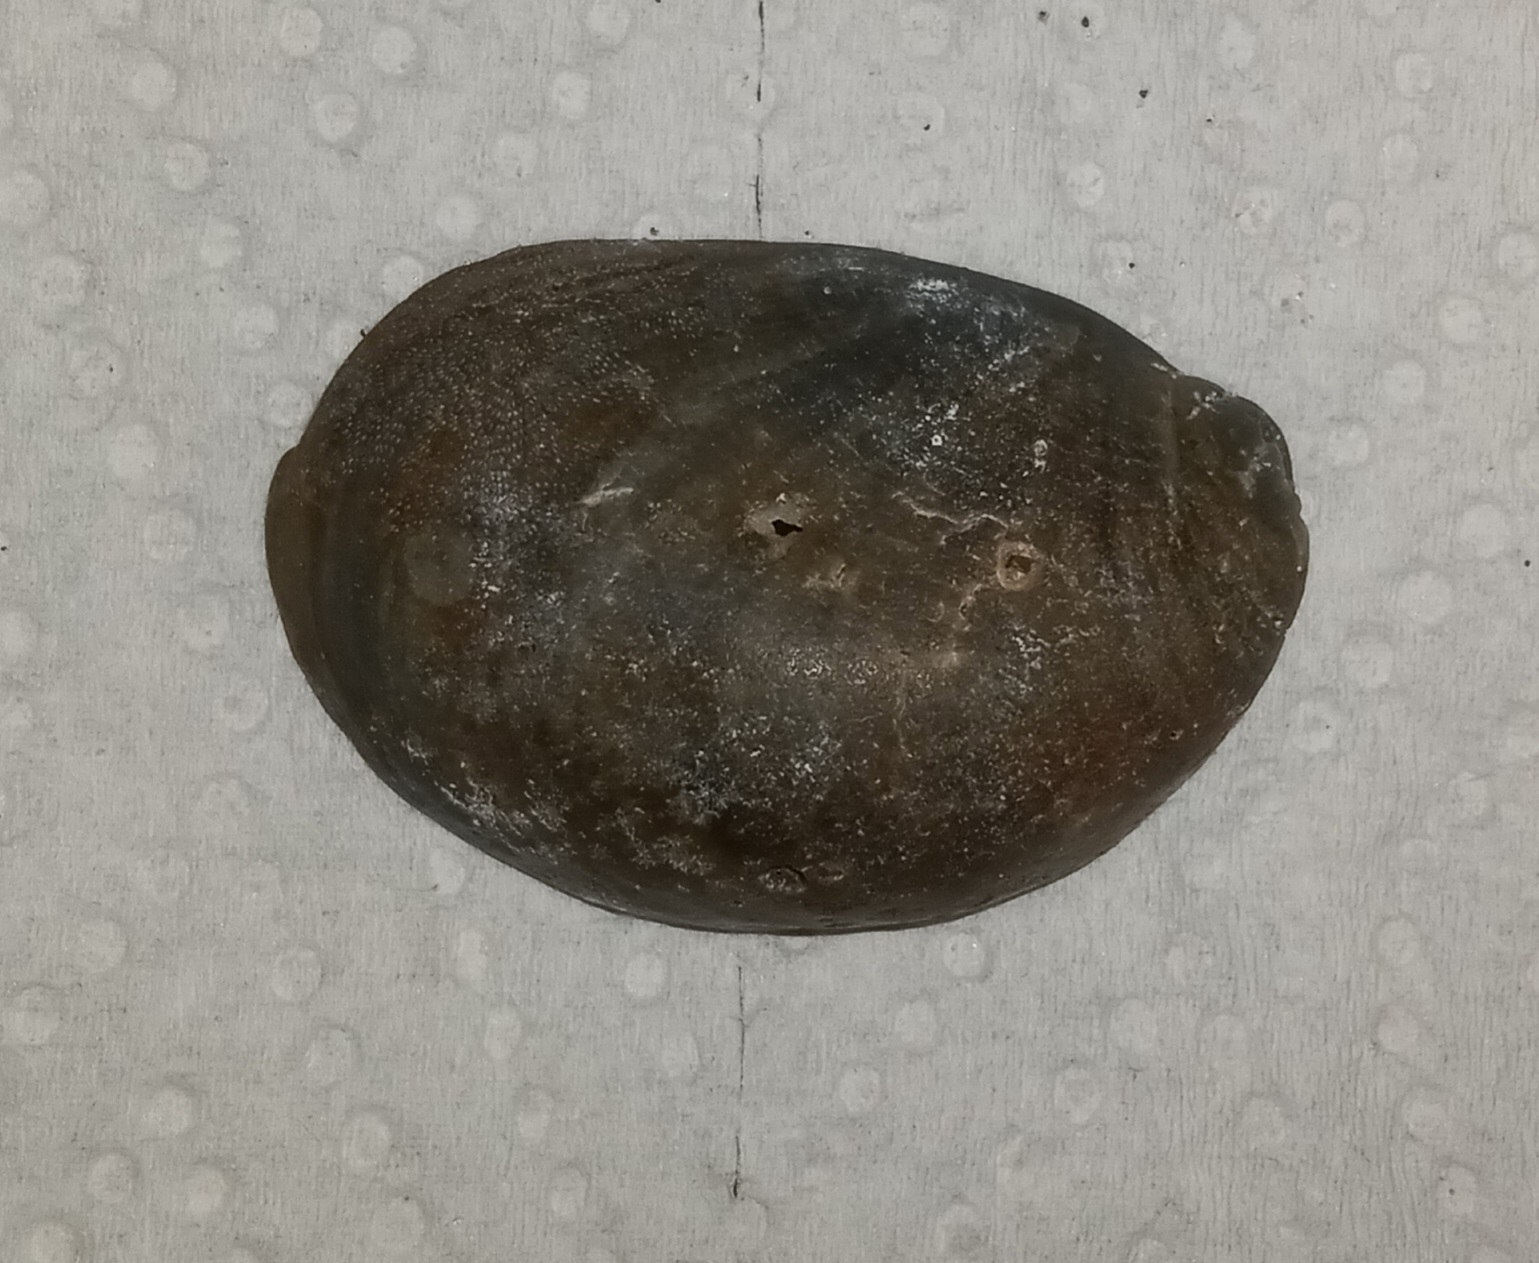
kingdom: Animalia
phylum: Mollusca
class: Gastropoda
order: Littorinimorpha
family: Calyptraeidae
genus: Crepidula
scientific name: Crepidula fornicata
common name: Slipper limpet
